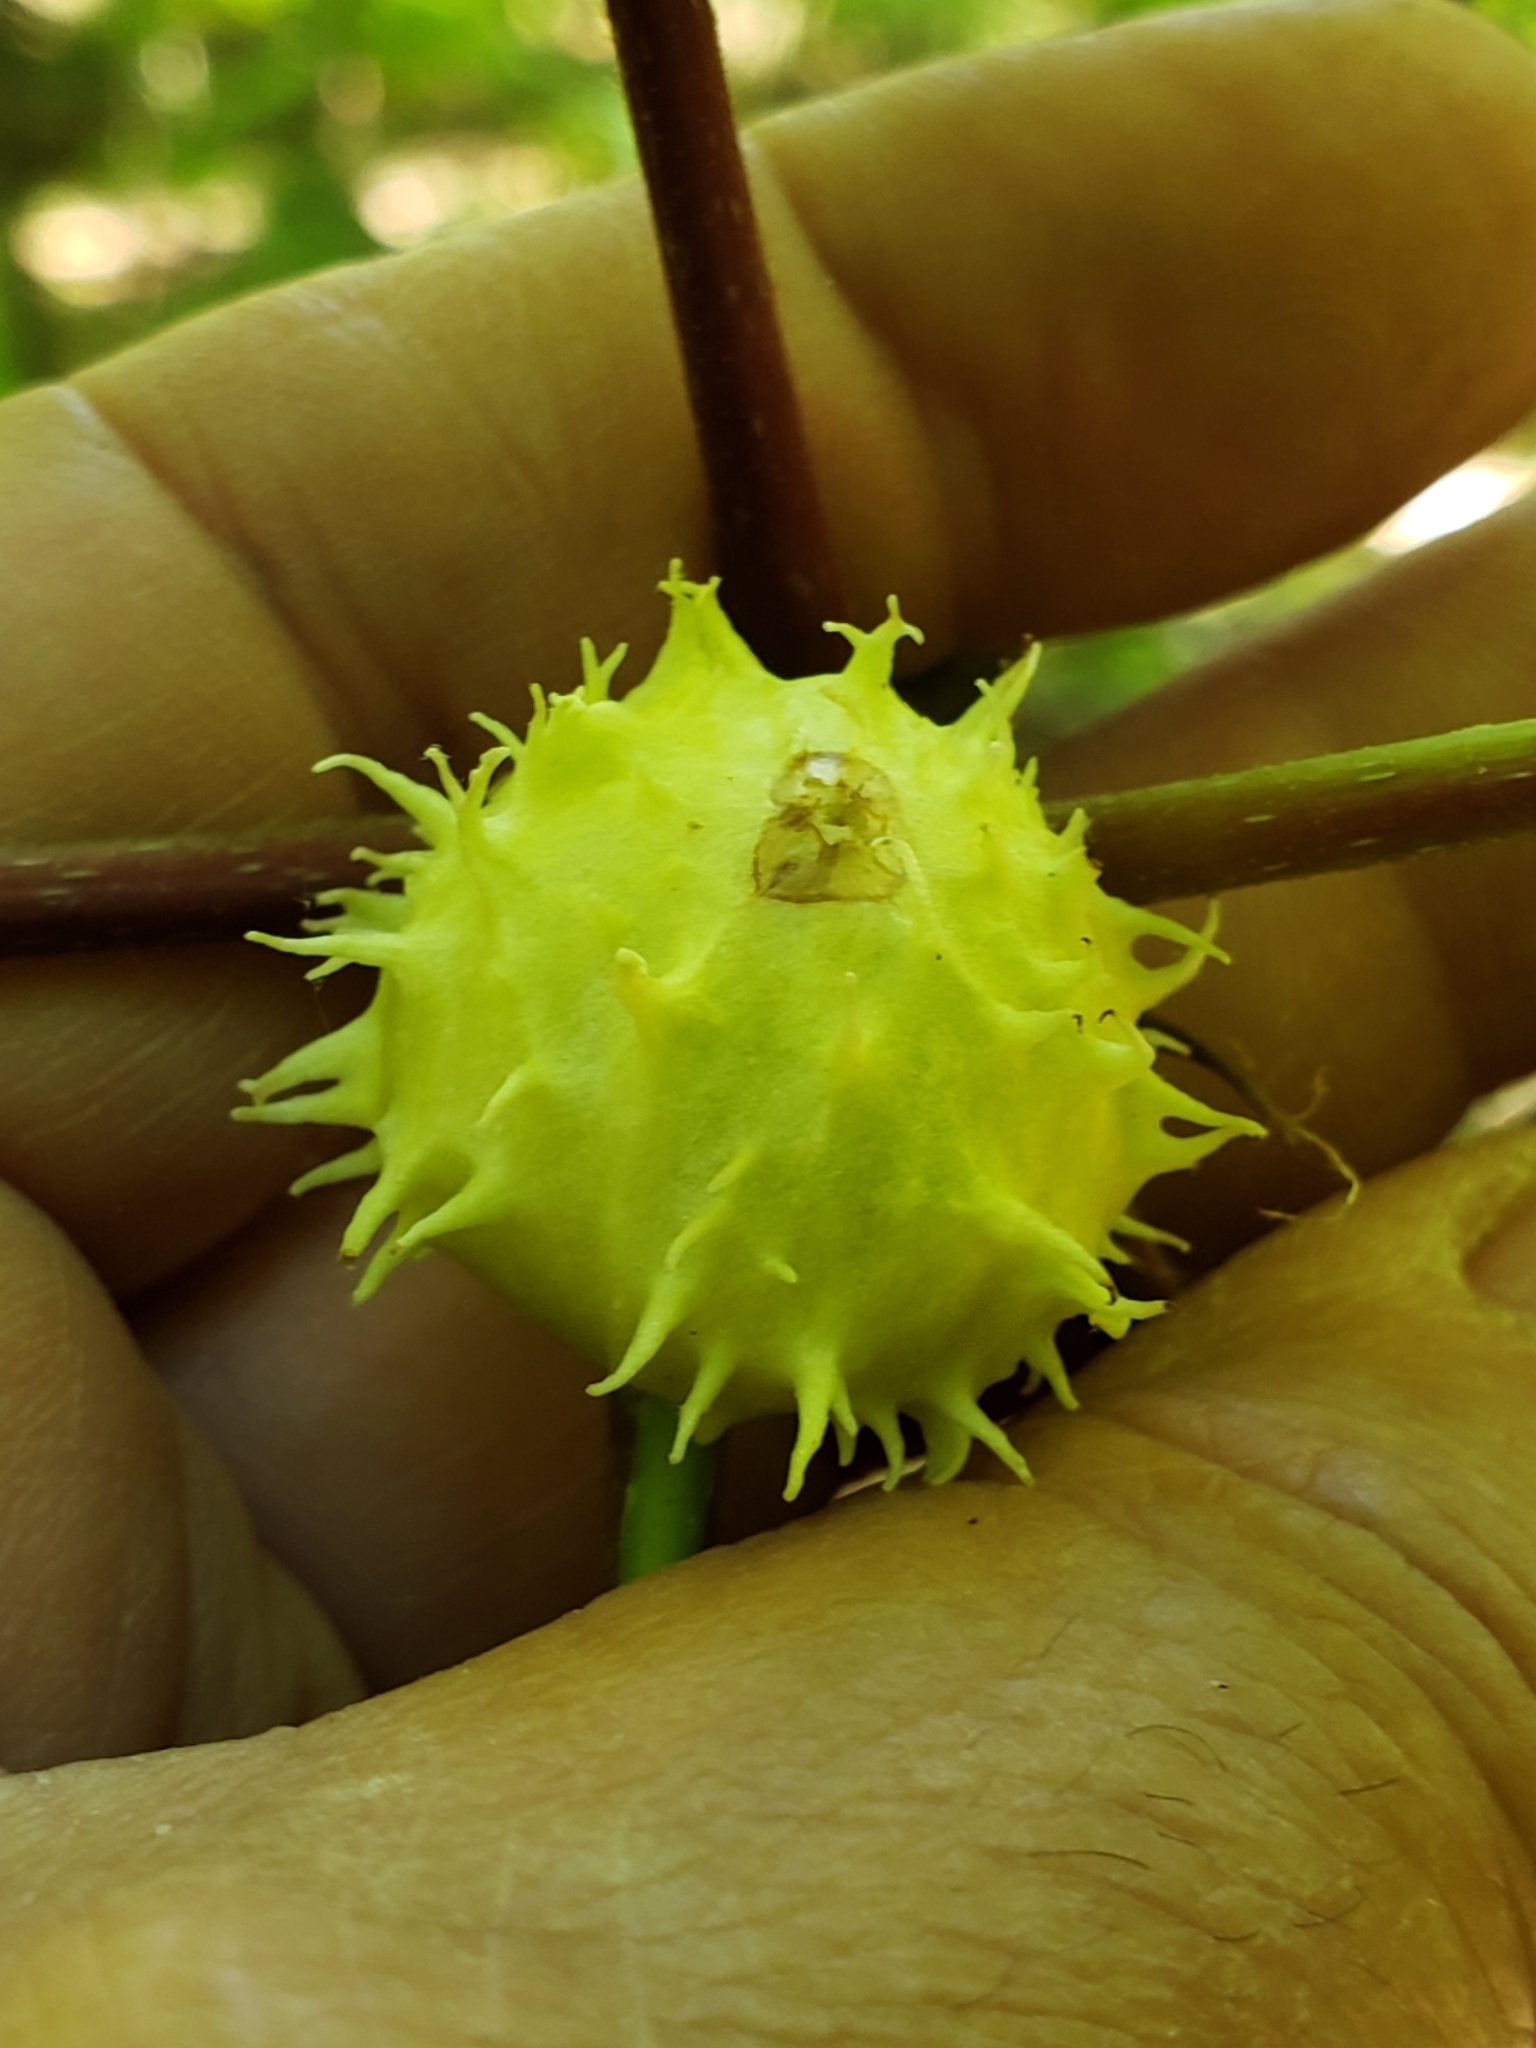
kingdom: Animalia
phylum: Arthropoda
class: Insecta
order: Hemiptera
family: Phylloxeridae
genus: Phylloxera
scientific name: Phylloxera spinosa
